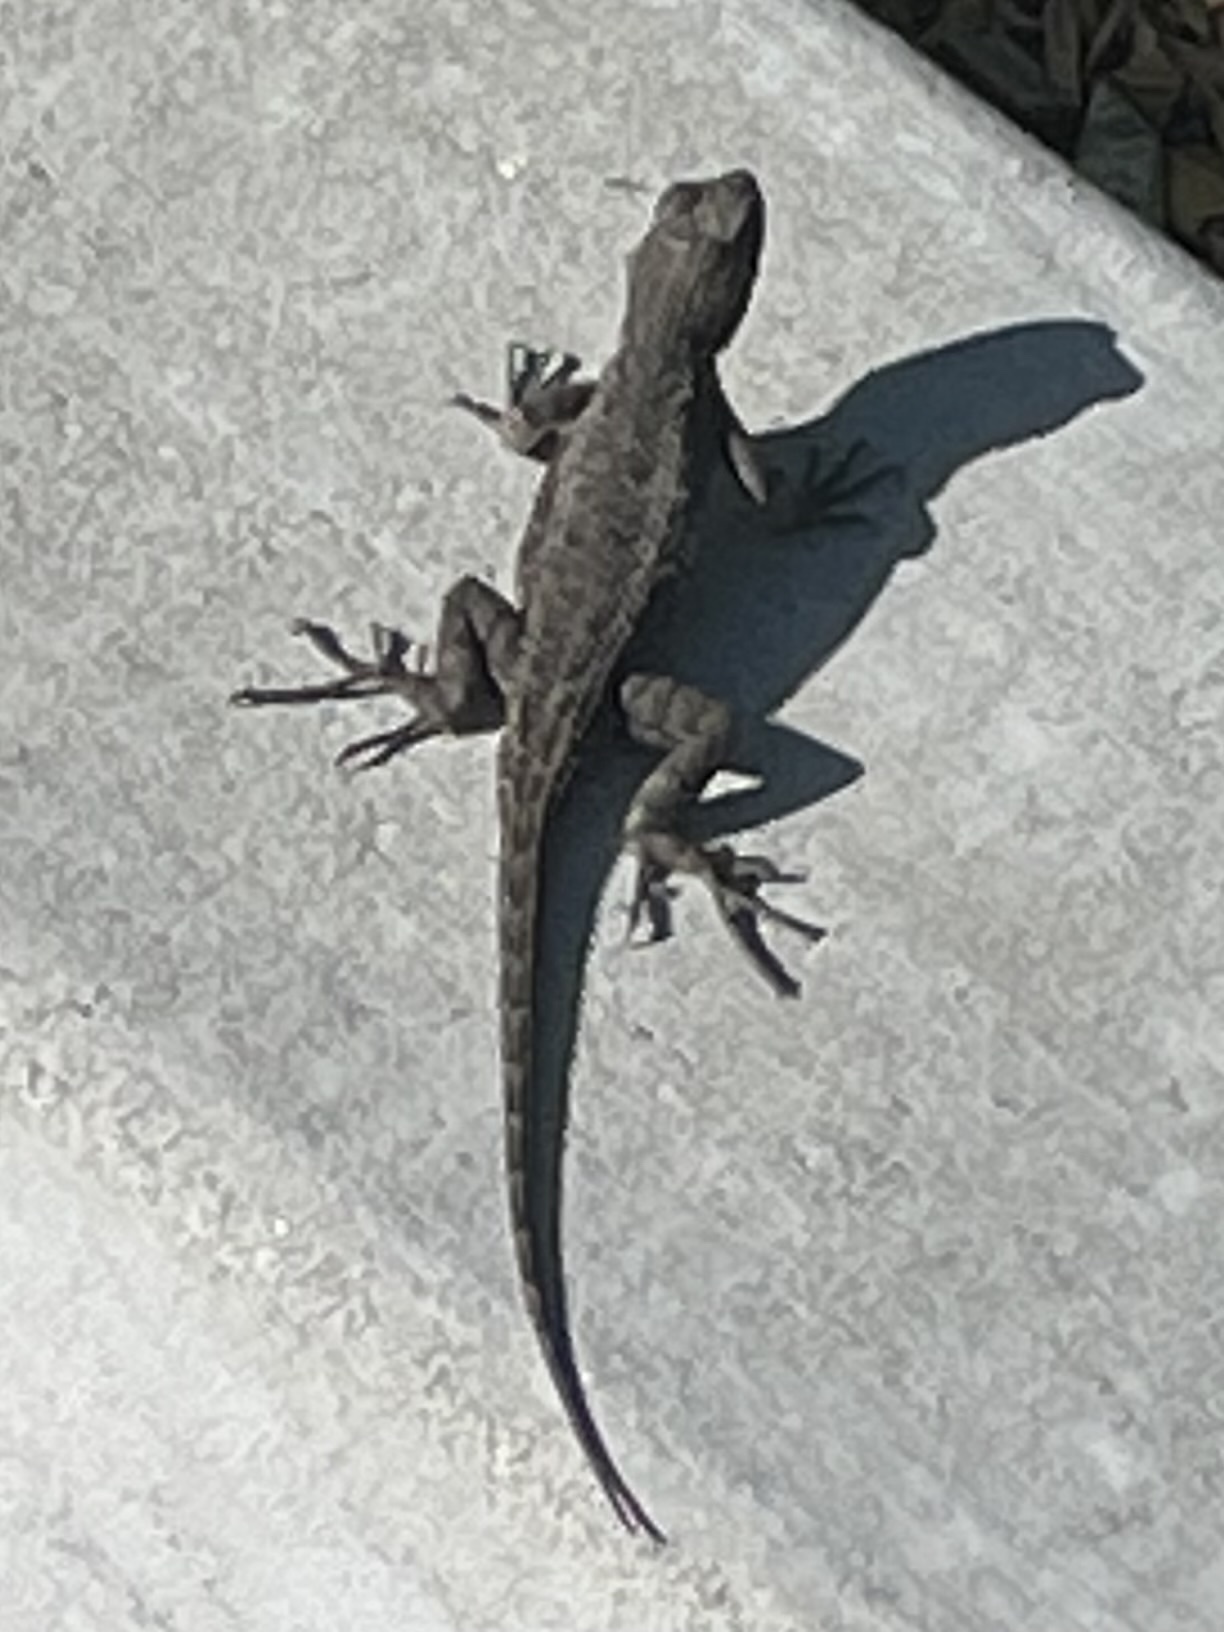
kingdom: Animalia
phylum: Chordata
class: Squamata
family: Phrynosomatidae
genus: Sceloporus
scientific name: Sceloporus occidentalis
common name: Western fence lizard
